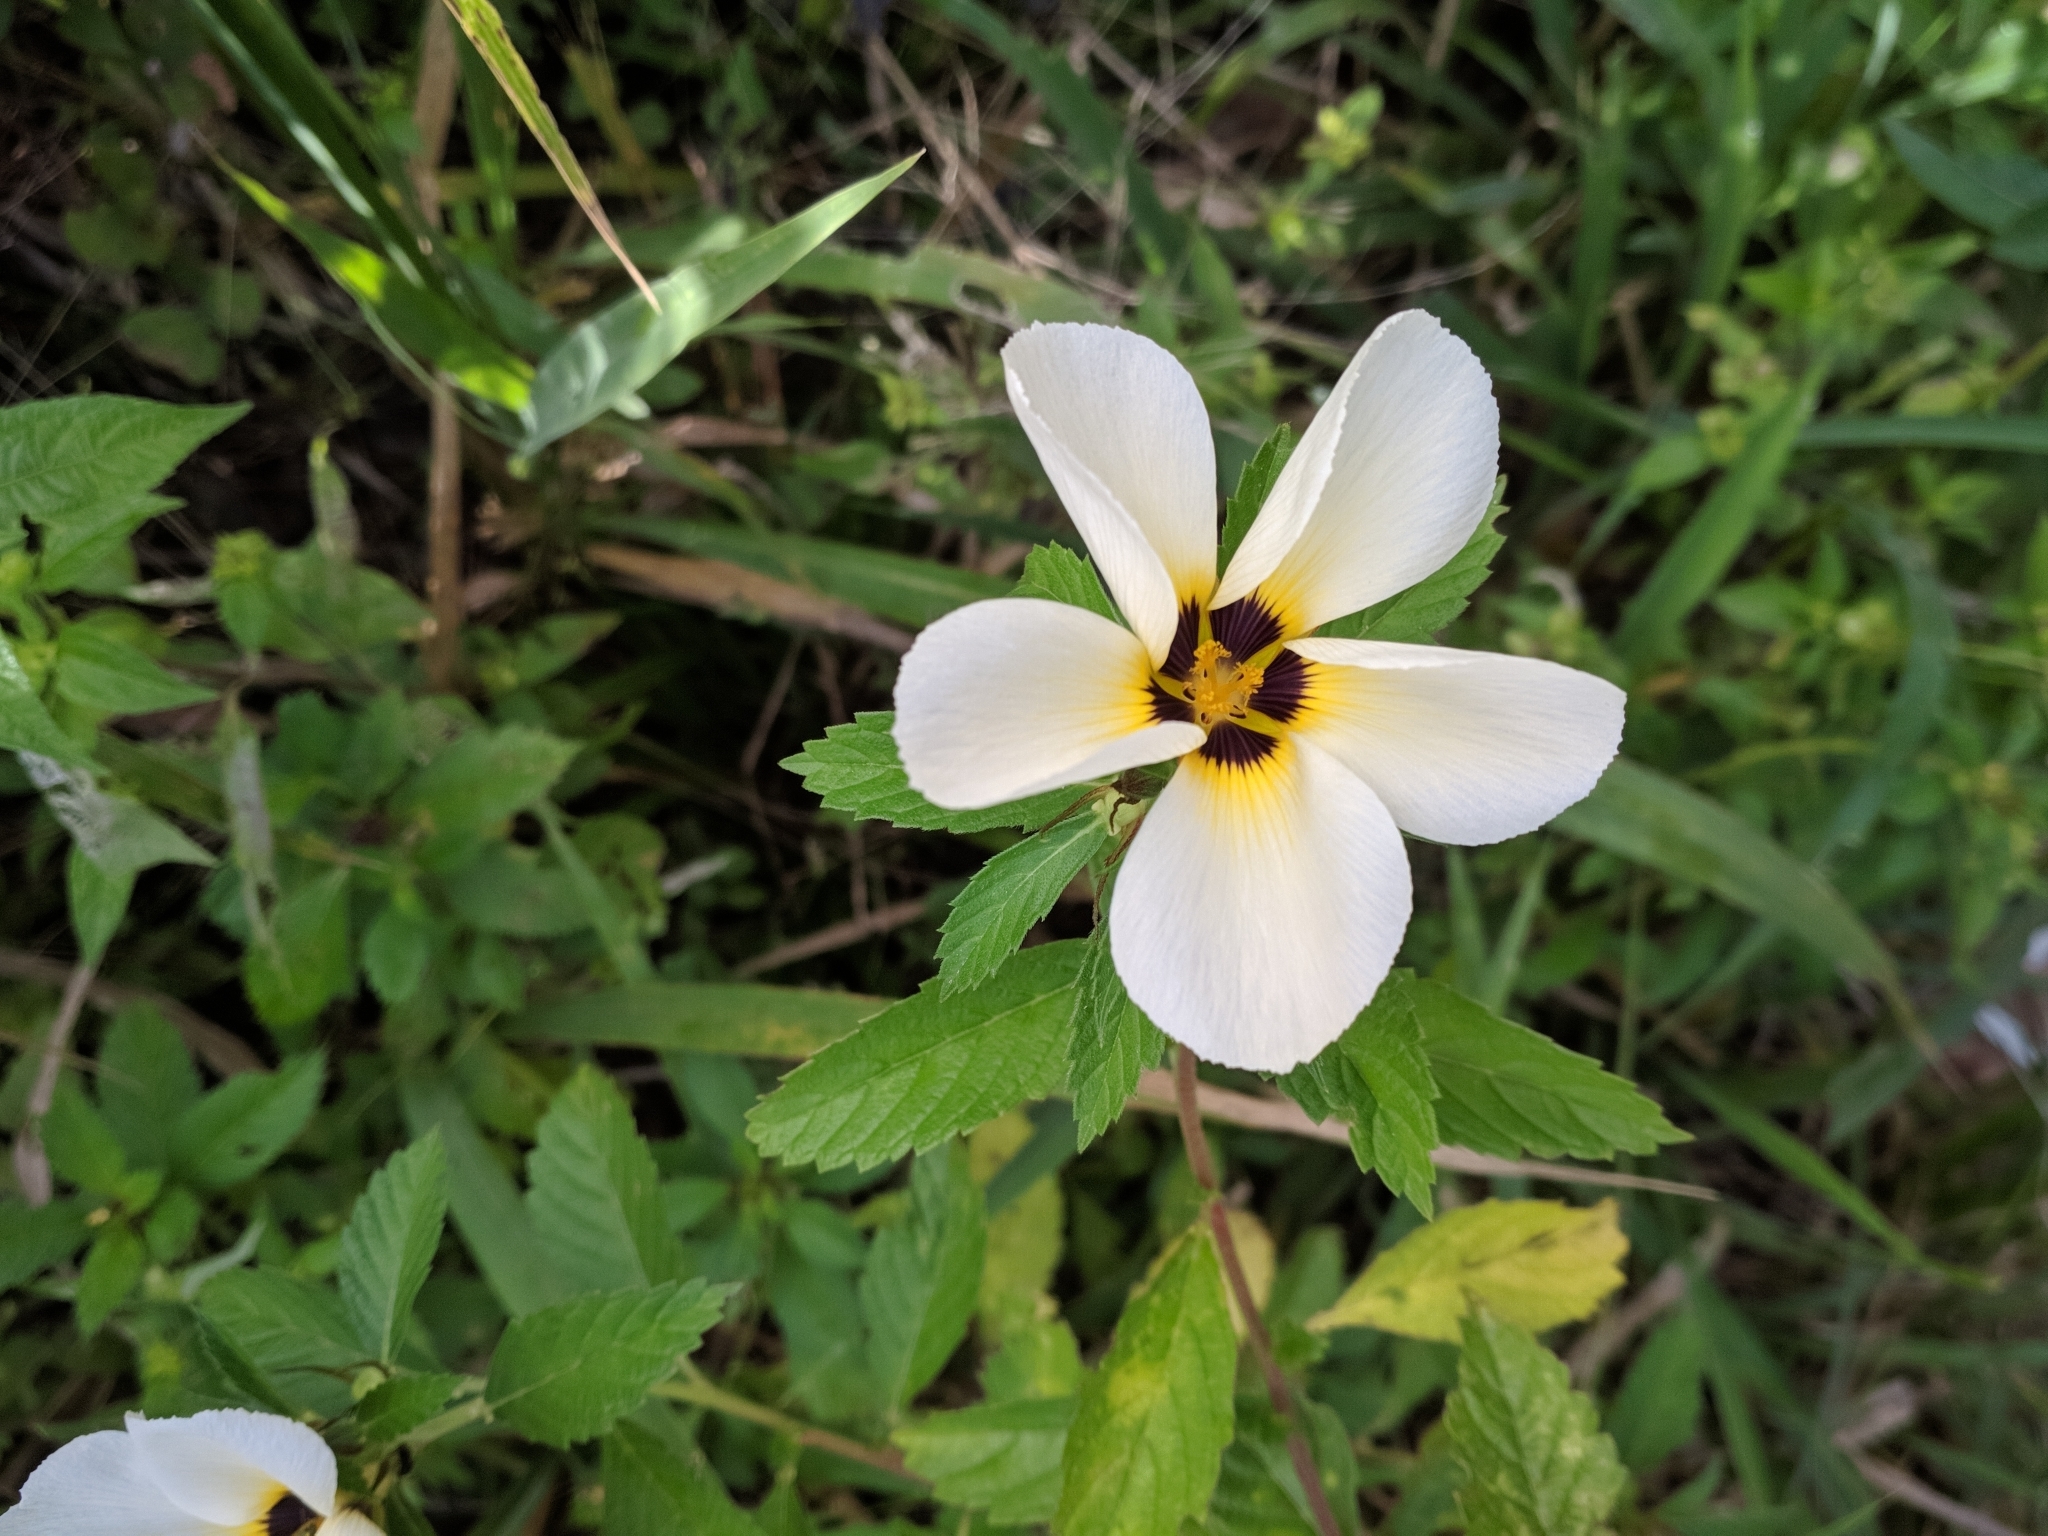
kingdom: Plantae
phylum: Tracheophyta
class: Magnoliopsida
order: Malpighiales
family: Turneraceae
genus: Turnera
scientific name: Turnera subulata
